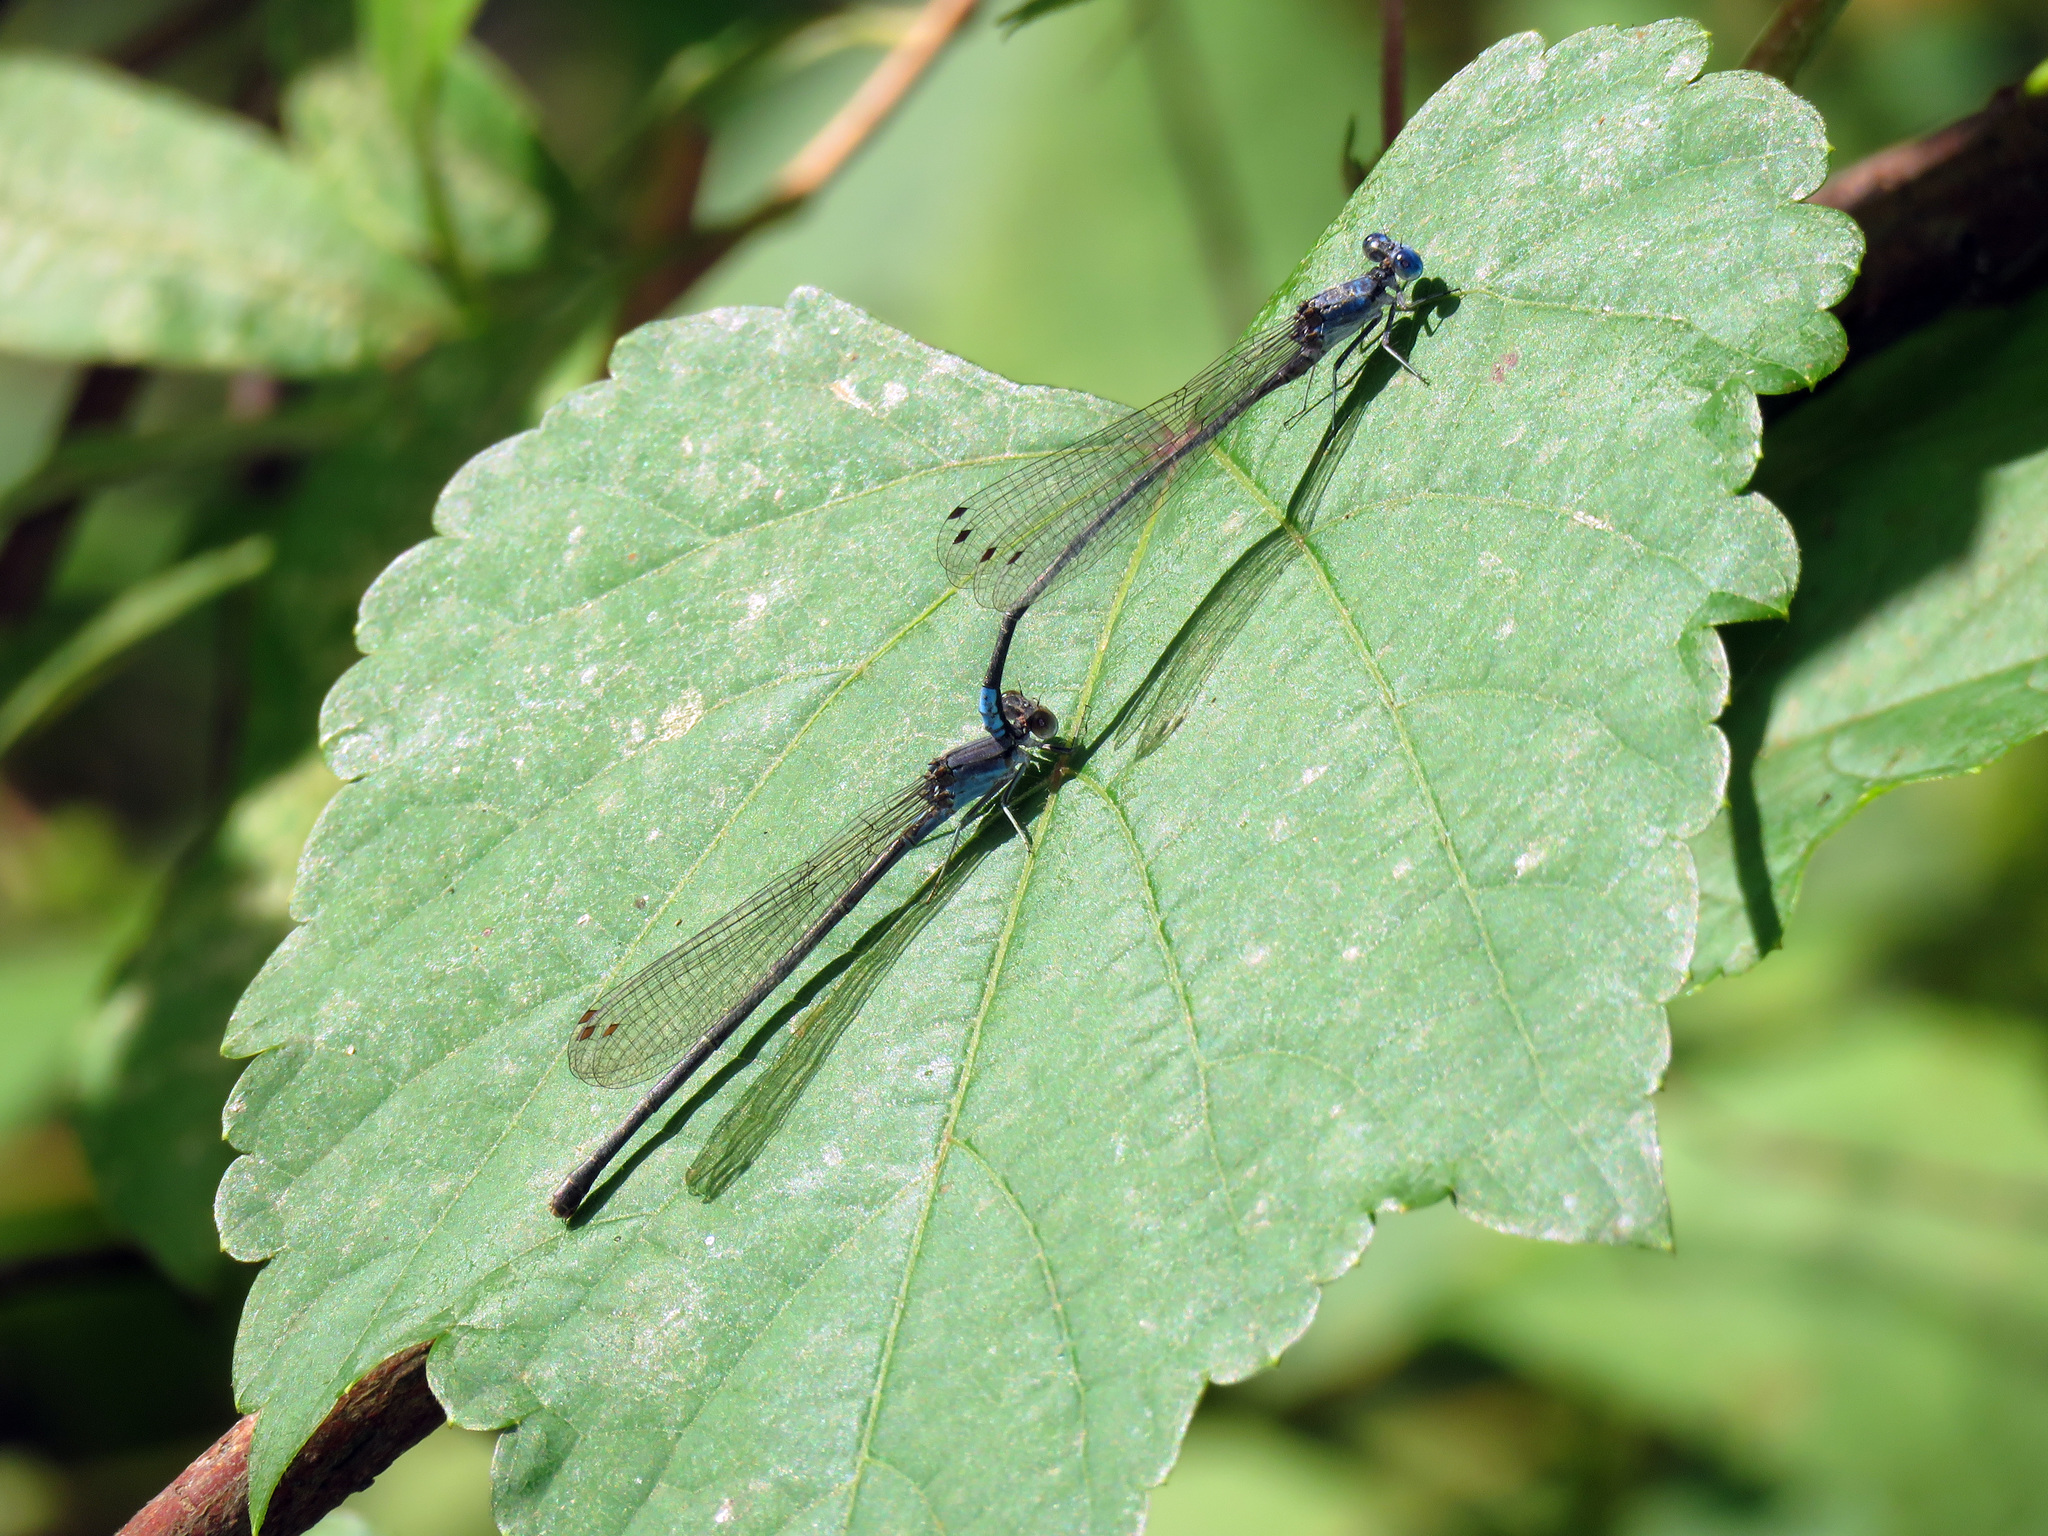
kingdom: Animalia
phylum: Arthropoda
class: Insecta
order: Odonata
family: Coenagrionidae
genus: Argia
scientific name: Argia apicalis
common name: Blue-fronted dancer
